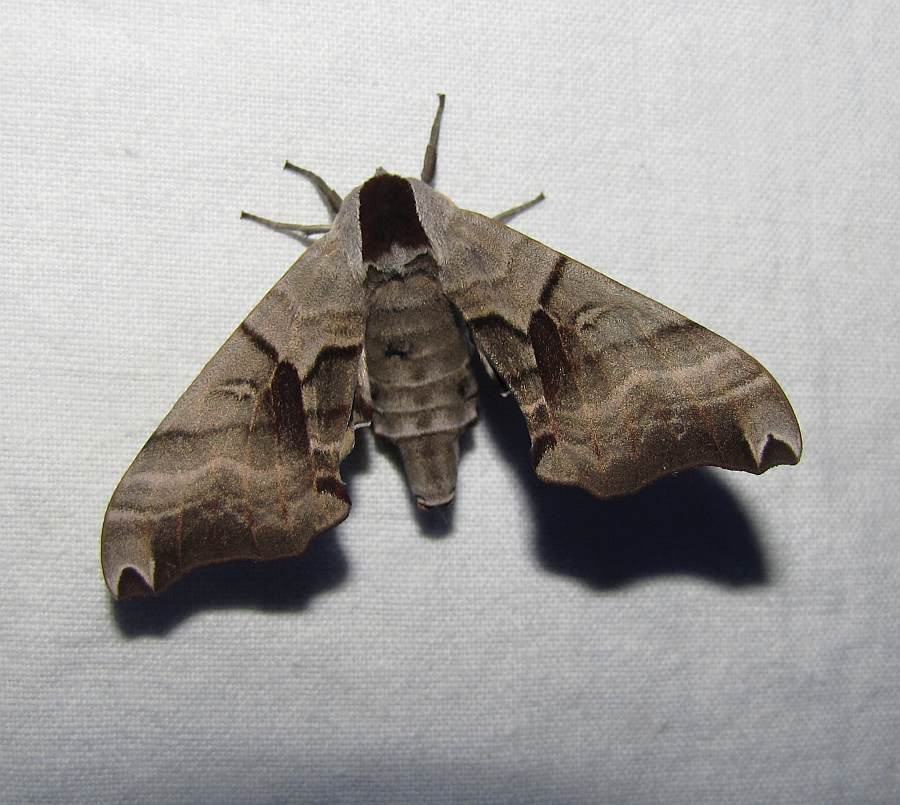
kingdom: Animalia
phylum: Arthropoda
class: Insecta
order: Lepidoptera
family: Sphingidae
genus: Smerinthus
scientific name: Smerinthus jamaicensis
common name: Twin spotted sphinx
